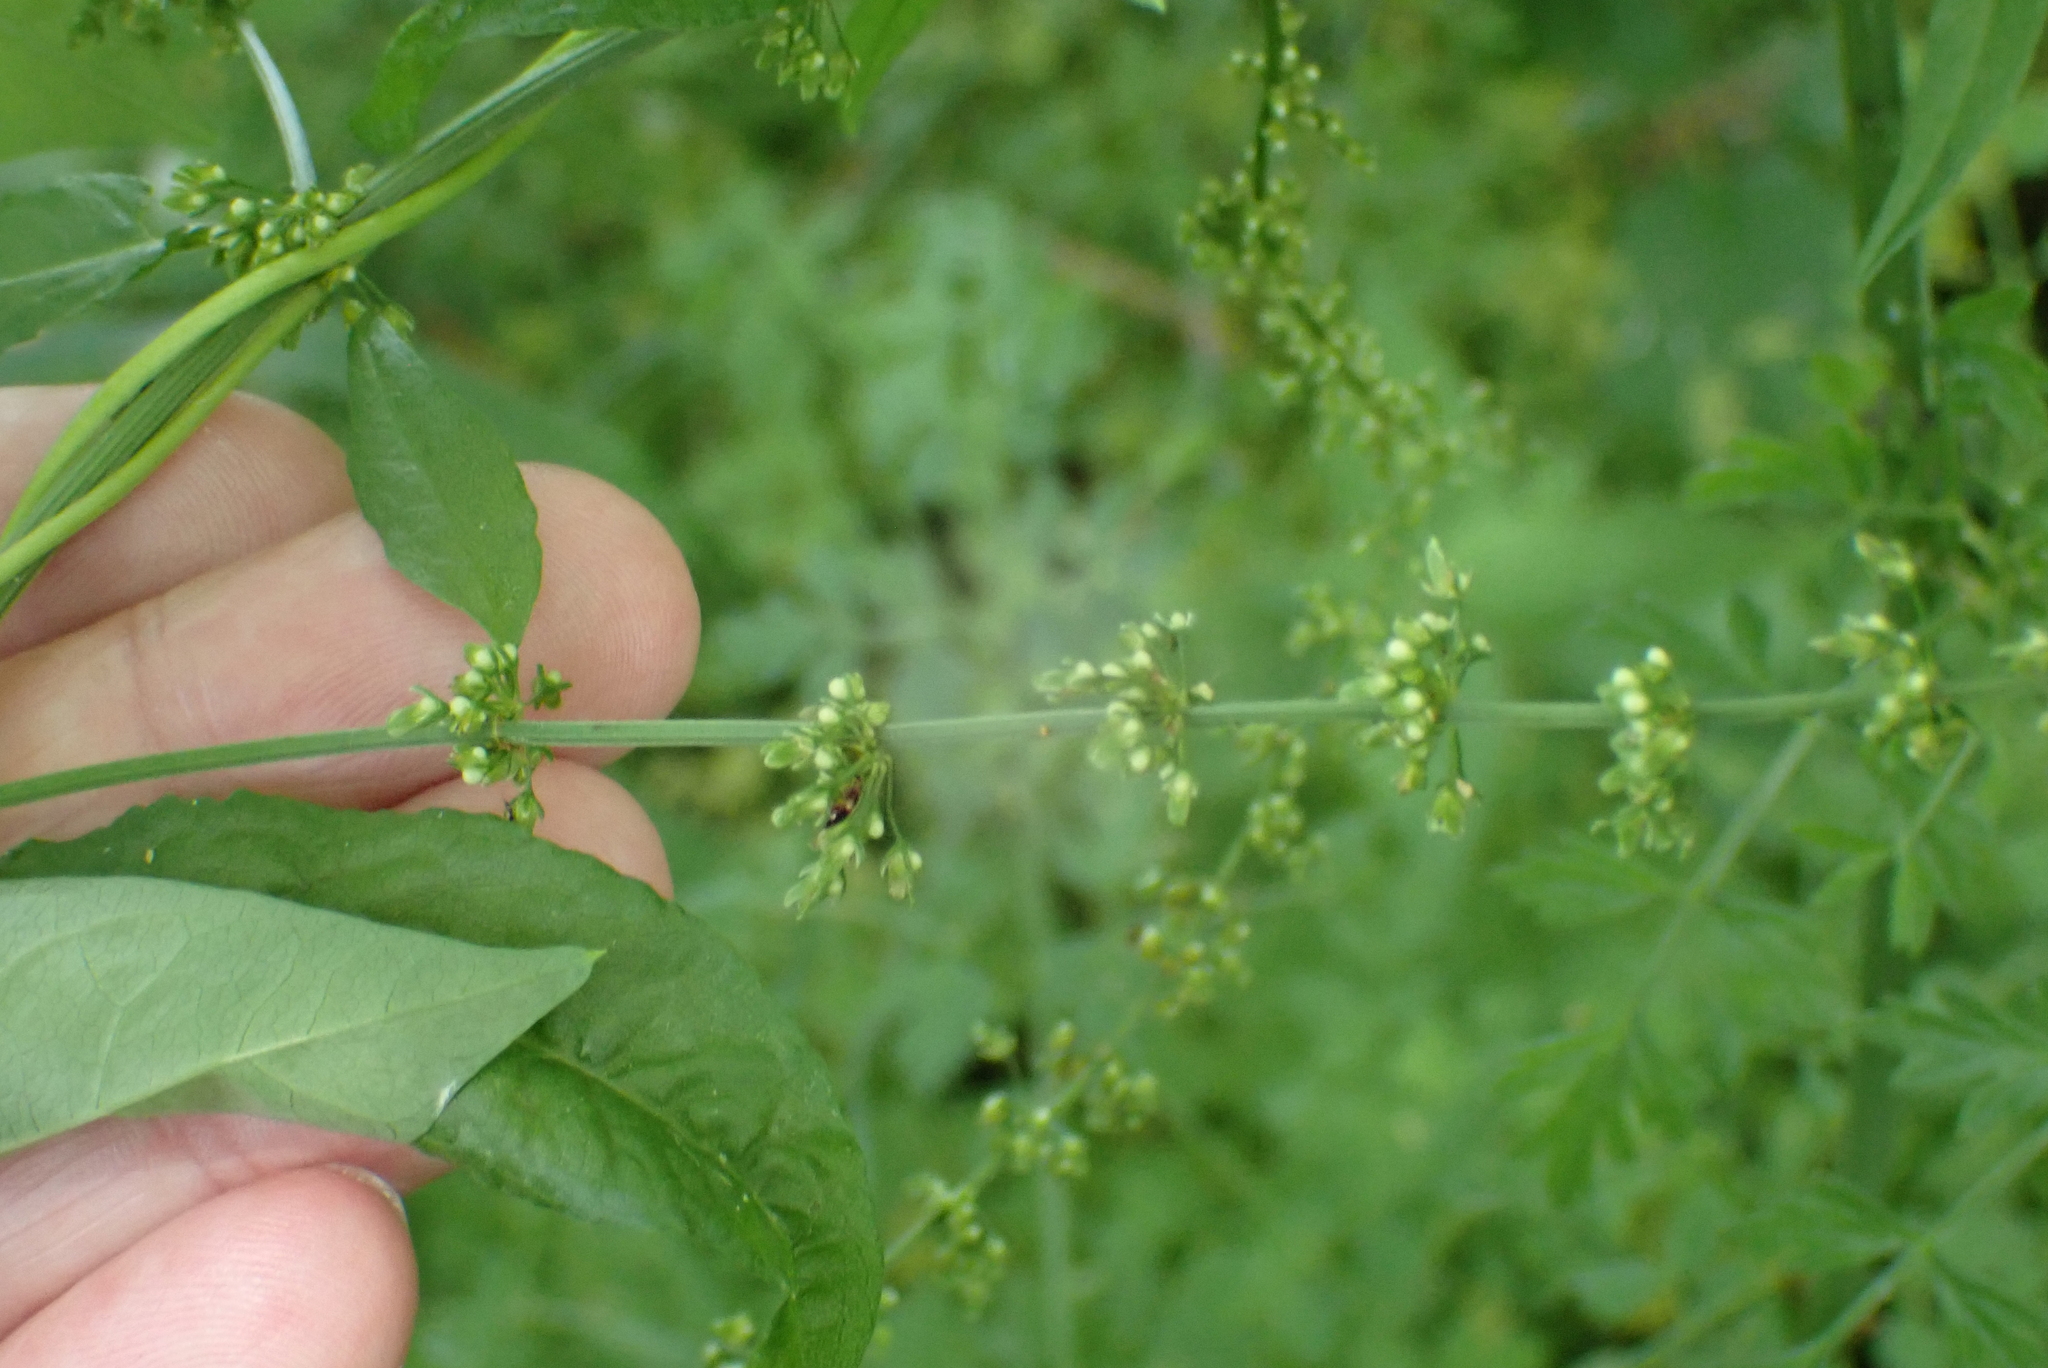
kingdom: Plantae
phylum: Tracheophyta
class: Magnoliopsida
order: Caryophyllales
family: Polygonaceae
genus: Rumex
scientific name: Rumex conglomeratus
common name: Clustered dock
